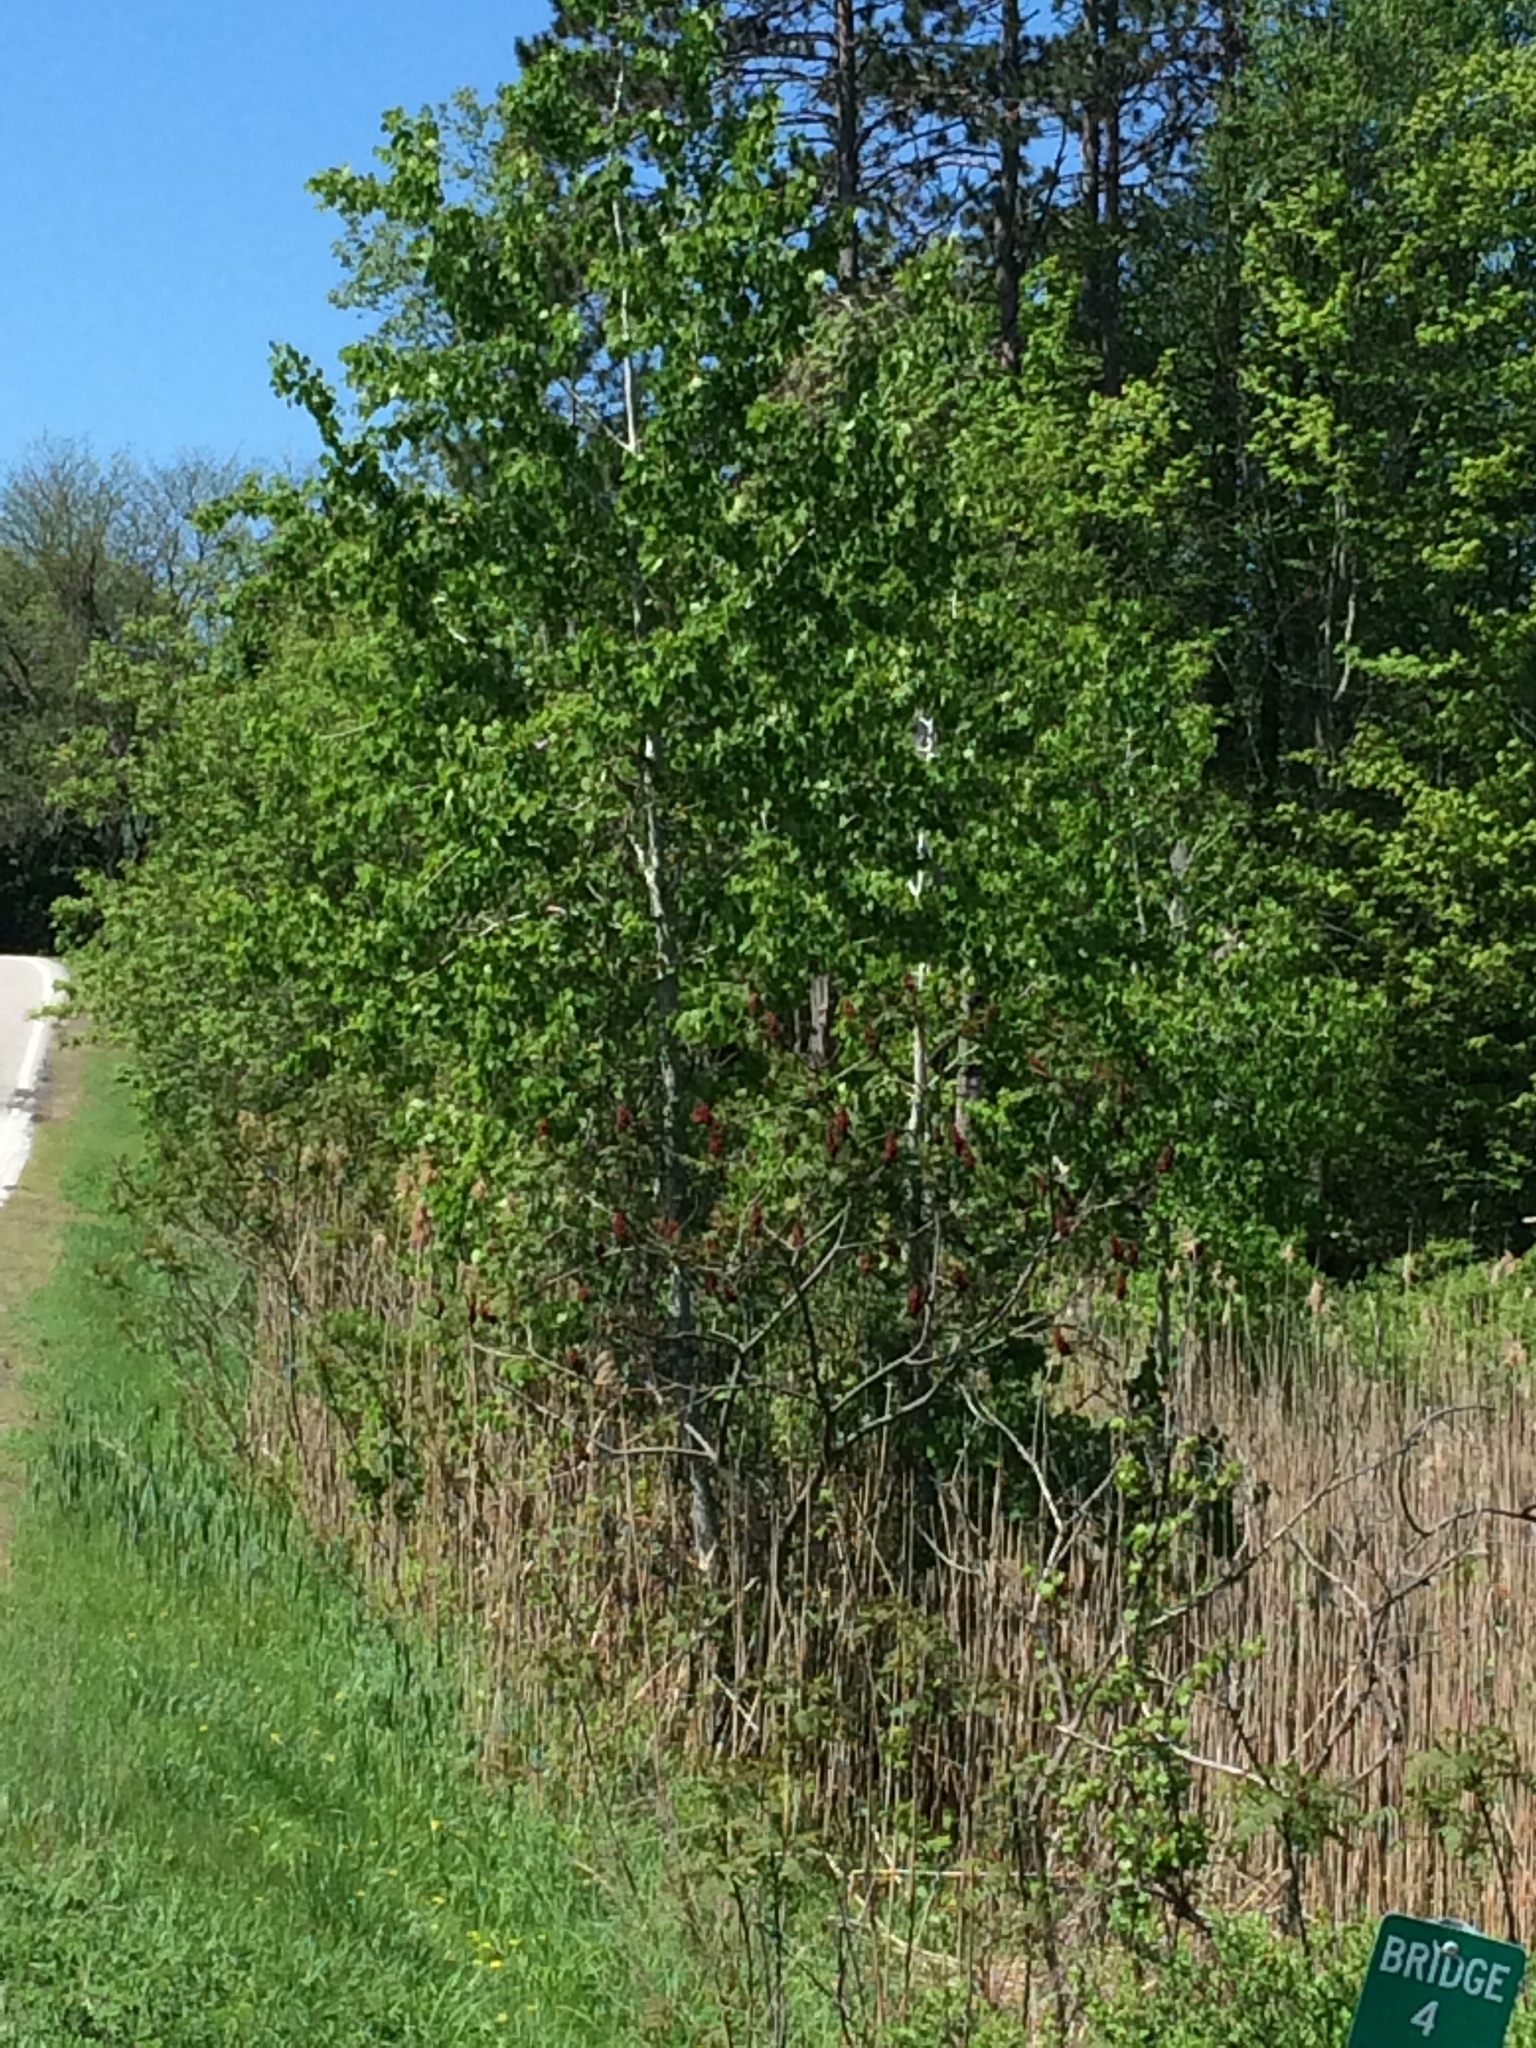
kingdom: Plantae
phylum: Tracheophyta
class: Magnoliopsida
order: Malpighiales
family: Salicaceae
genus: Populus
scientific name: Populus tremuloides
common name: Quaking aspen
